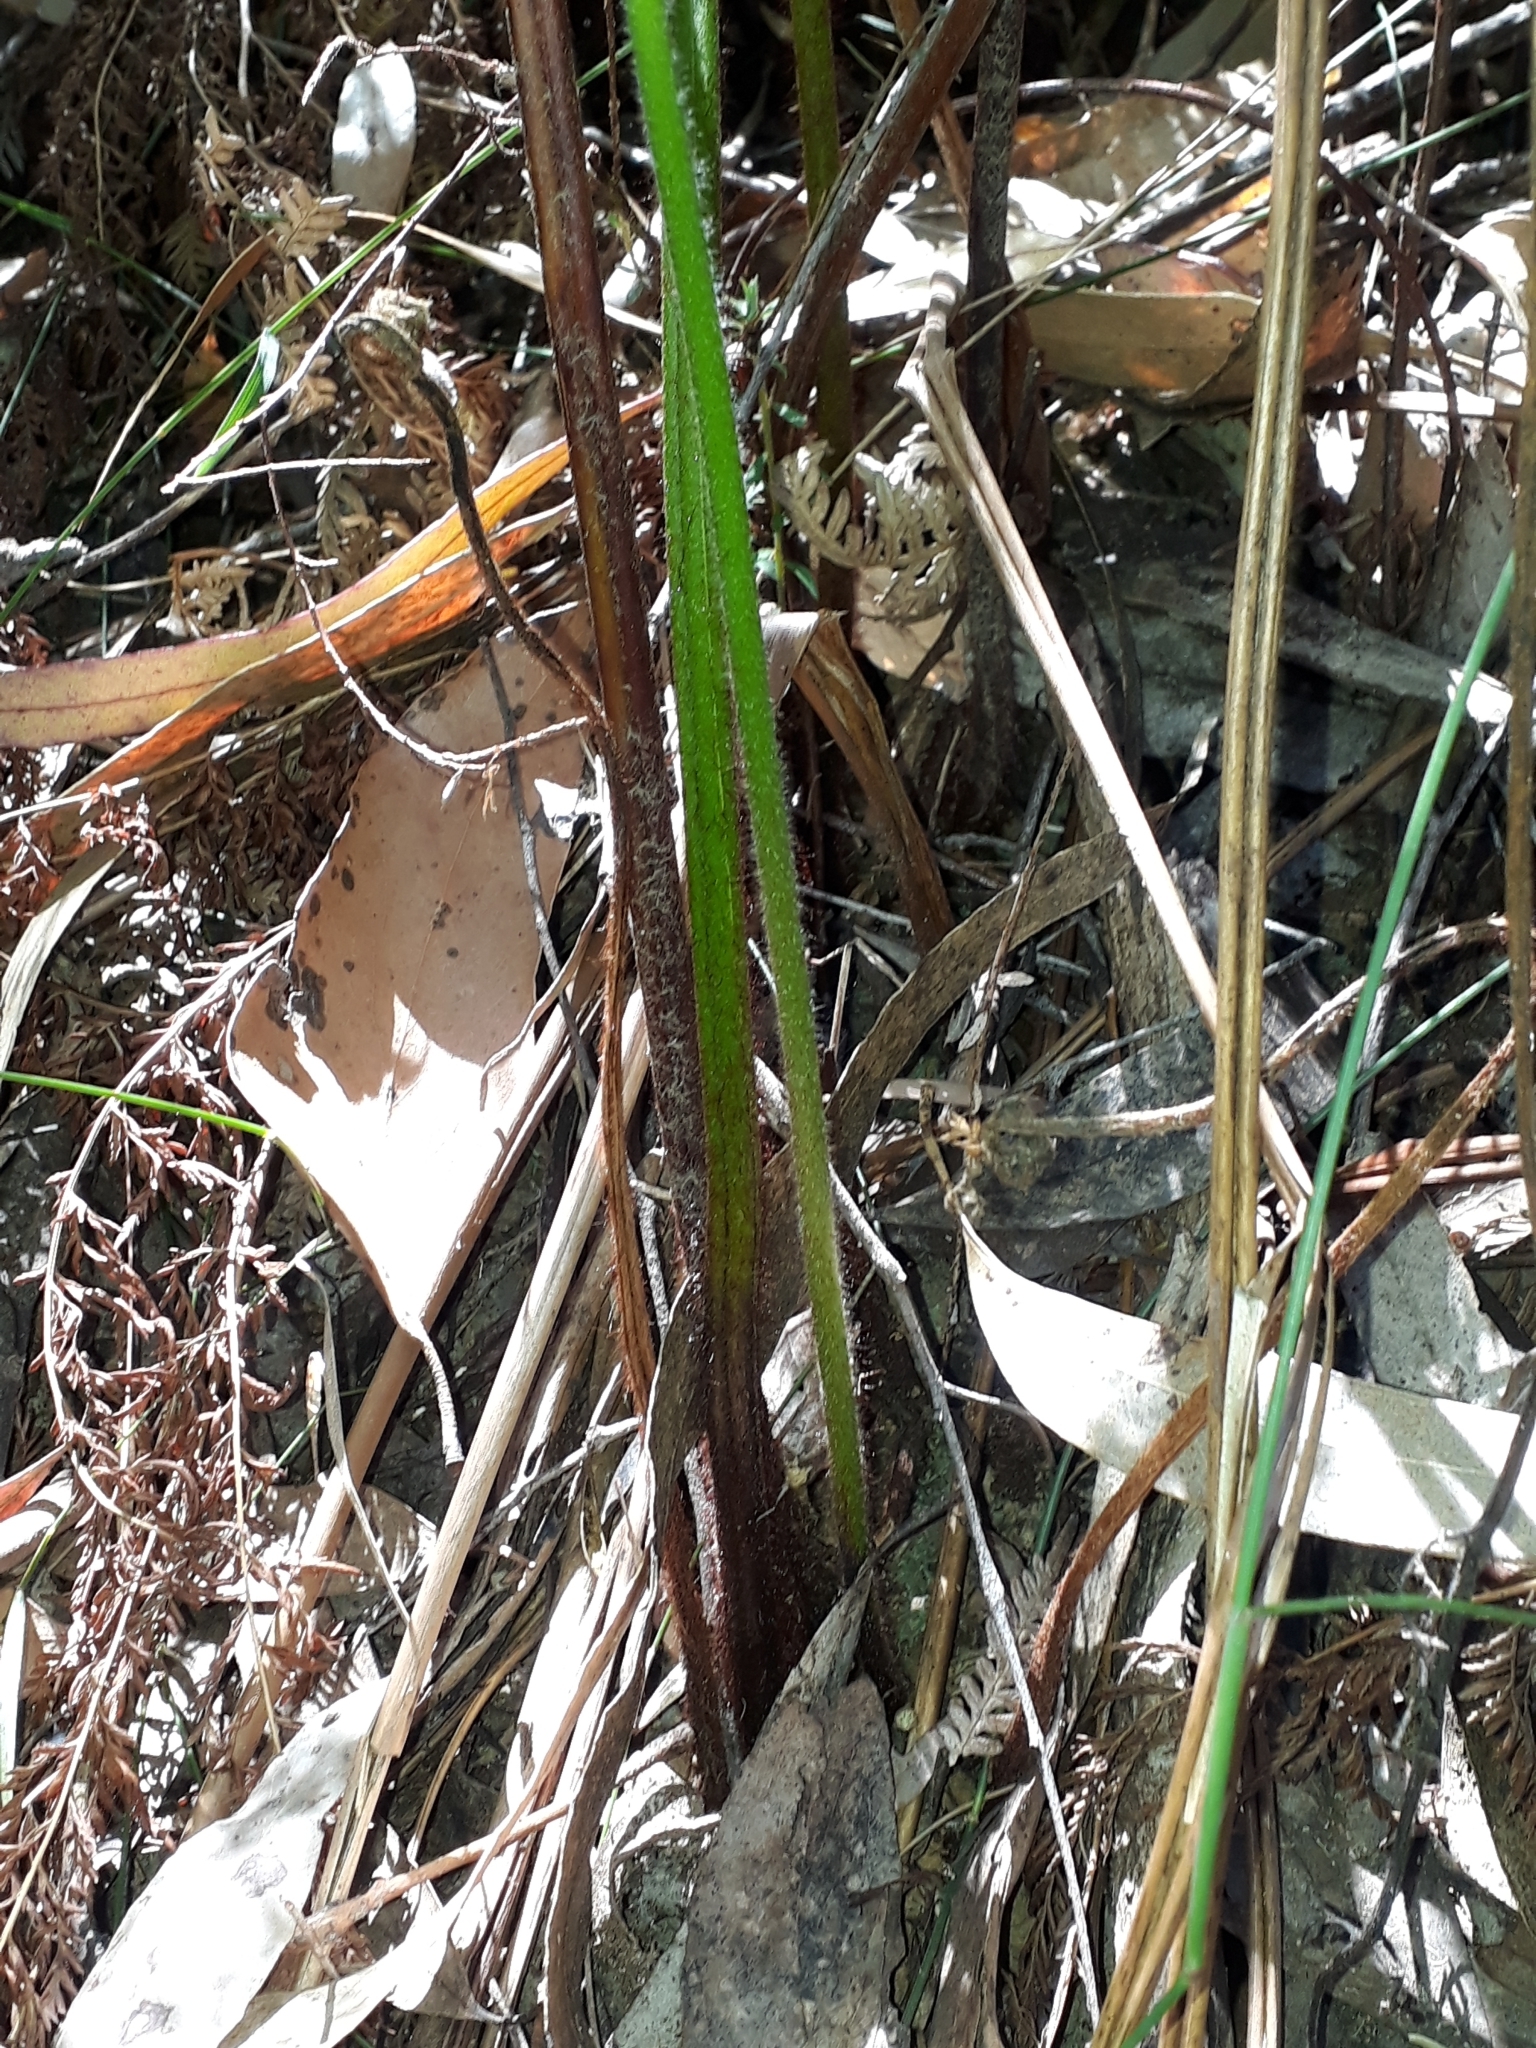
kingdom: Plantae
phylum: Tracheophyta
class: Polypodiopsida
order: Cyatheales
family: Dicksoniaceae
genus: Calochlaena
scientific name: Calochlaena dubia
